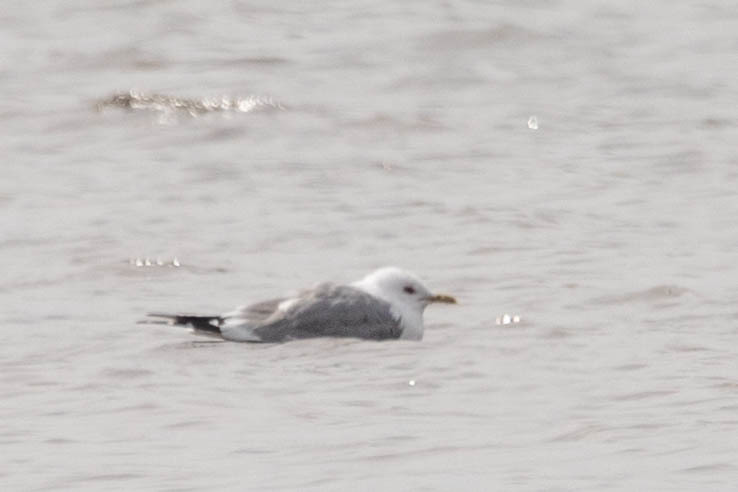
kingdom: Animalia
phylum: Chordata
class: Aves
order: Charadriiformes
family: Laridae
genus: Larus
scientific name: Larus brachyrhynchus
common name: Short-billed gull
